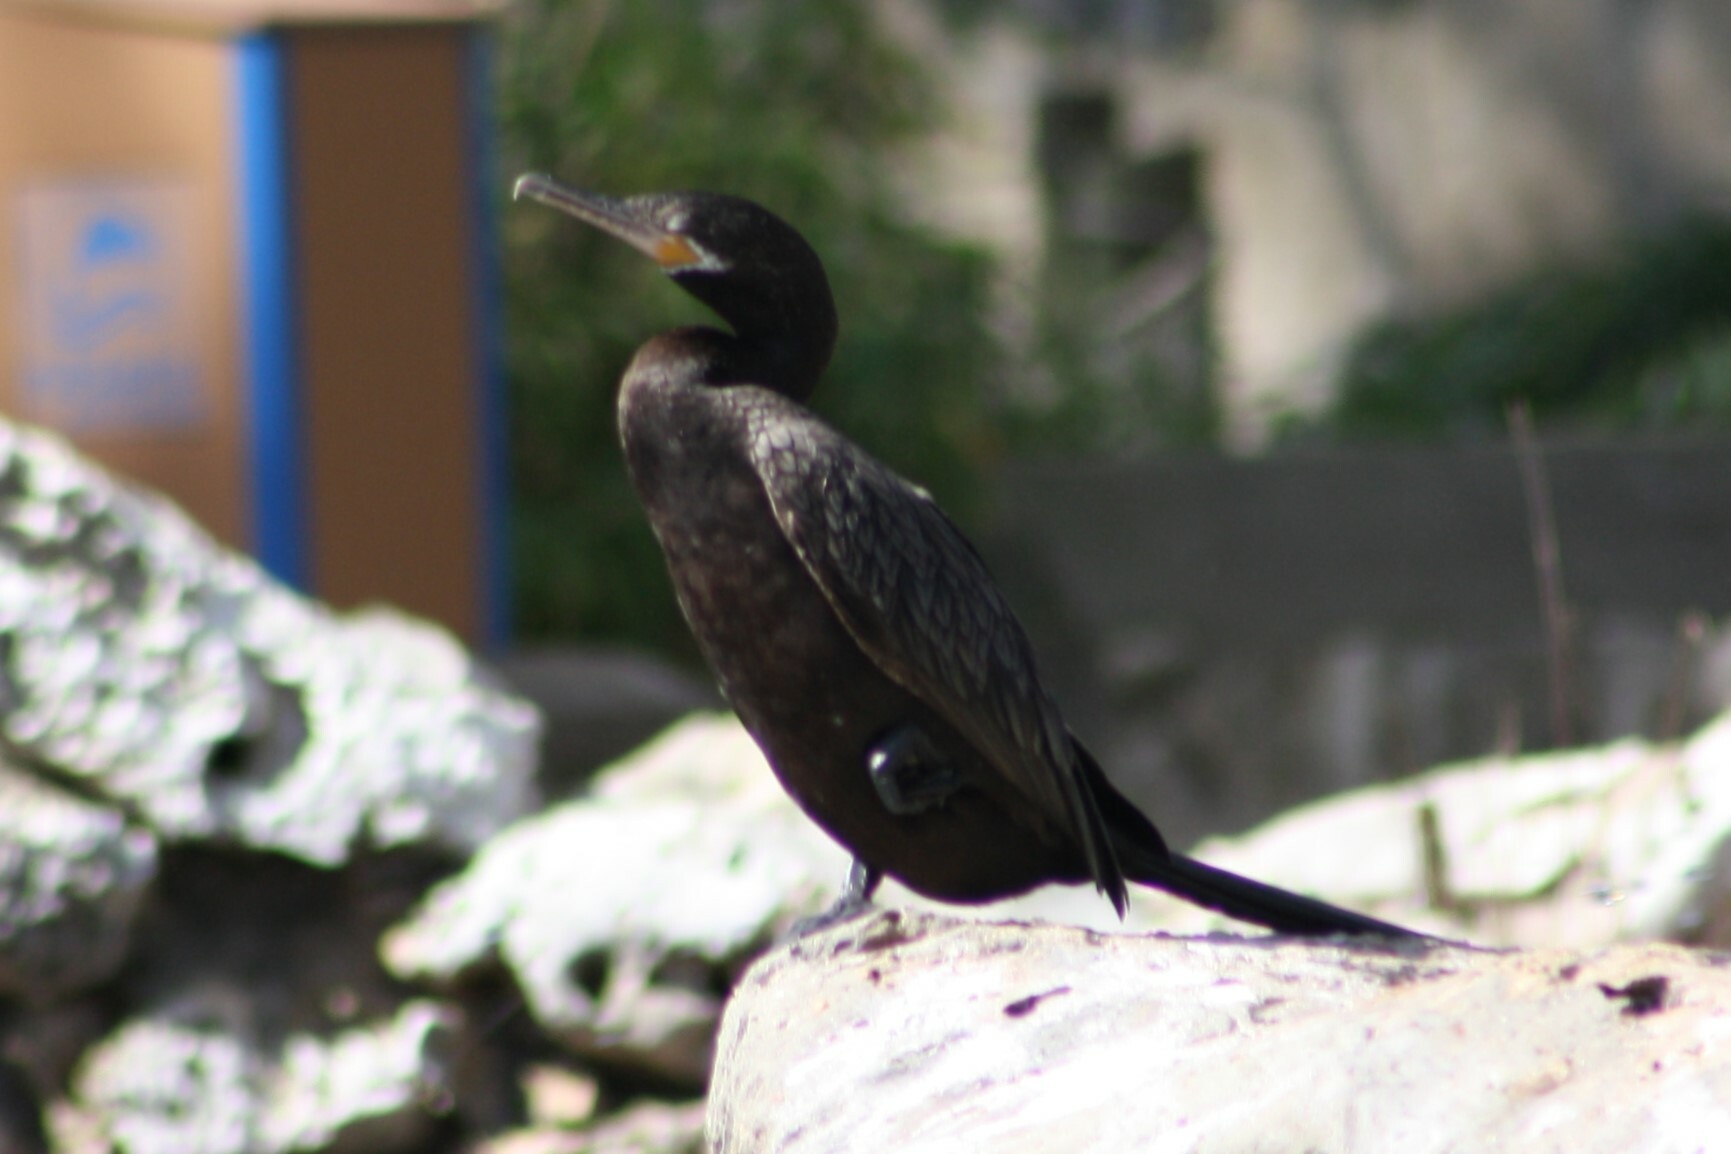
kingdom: Animalia
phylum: Chordata
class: Aves
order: Suliformes
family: Phalacrocoracidae
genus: Phalacrocorax
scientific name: Phalacrocorax brasilianus
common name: Neotropic cormorant
